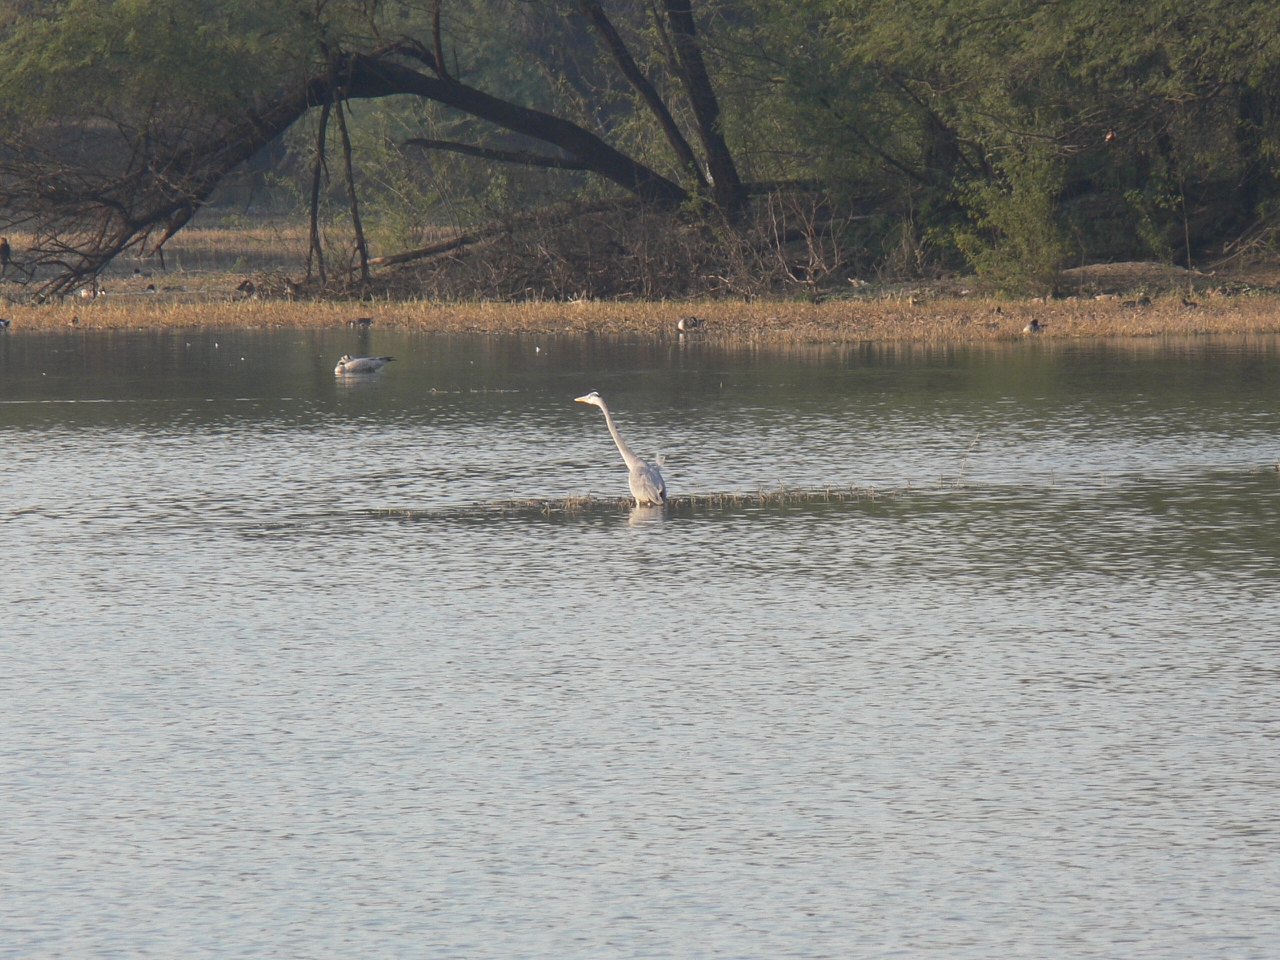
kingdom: Animalia
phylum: Chordata
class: Aves
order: Pelecaniformes
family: Ardeidae
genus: Ardea
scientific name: Ardea cinerea
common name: Grey heron
